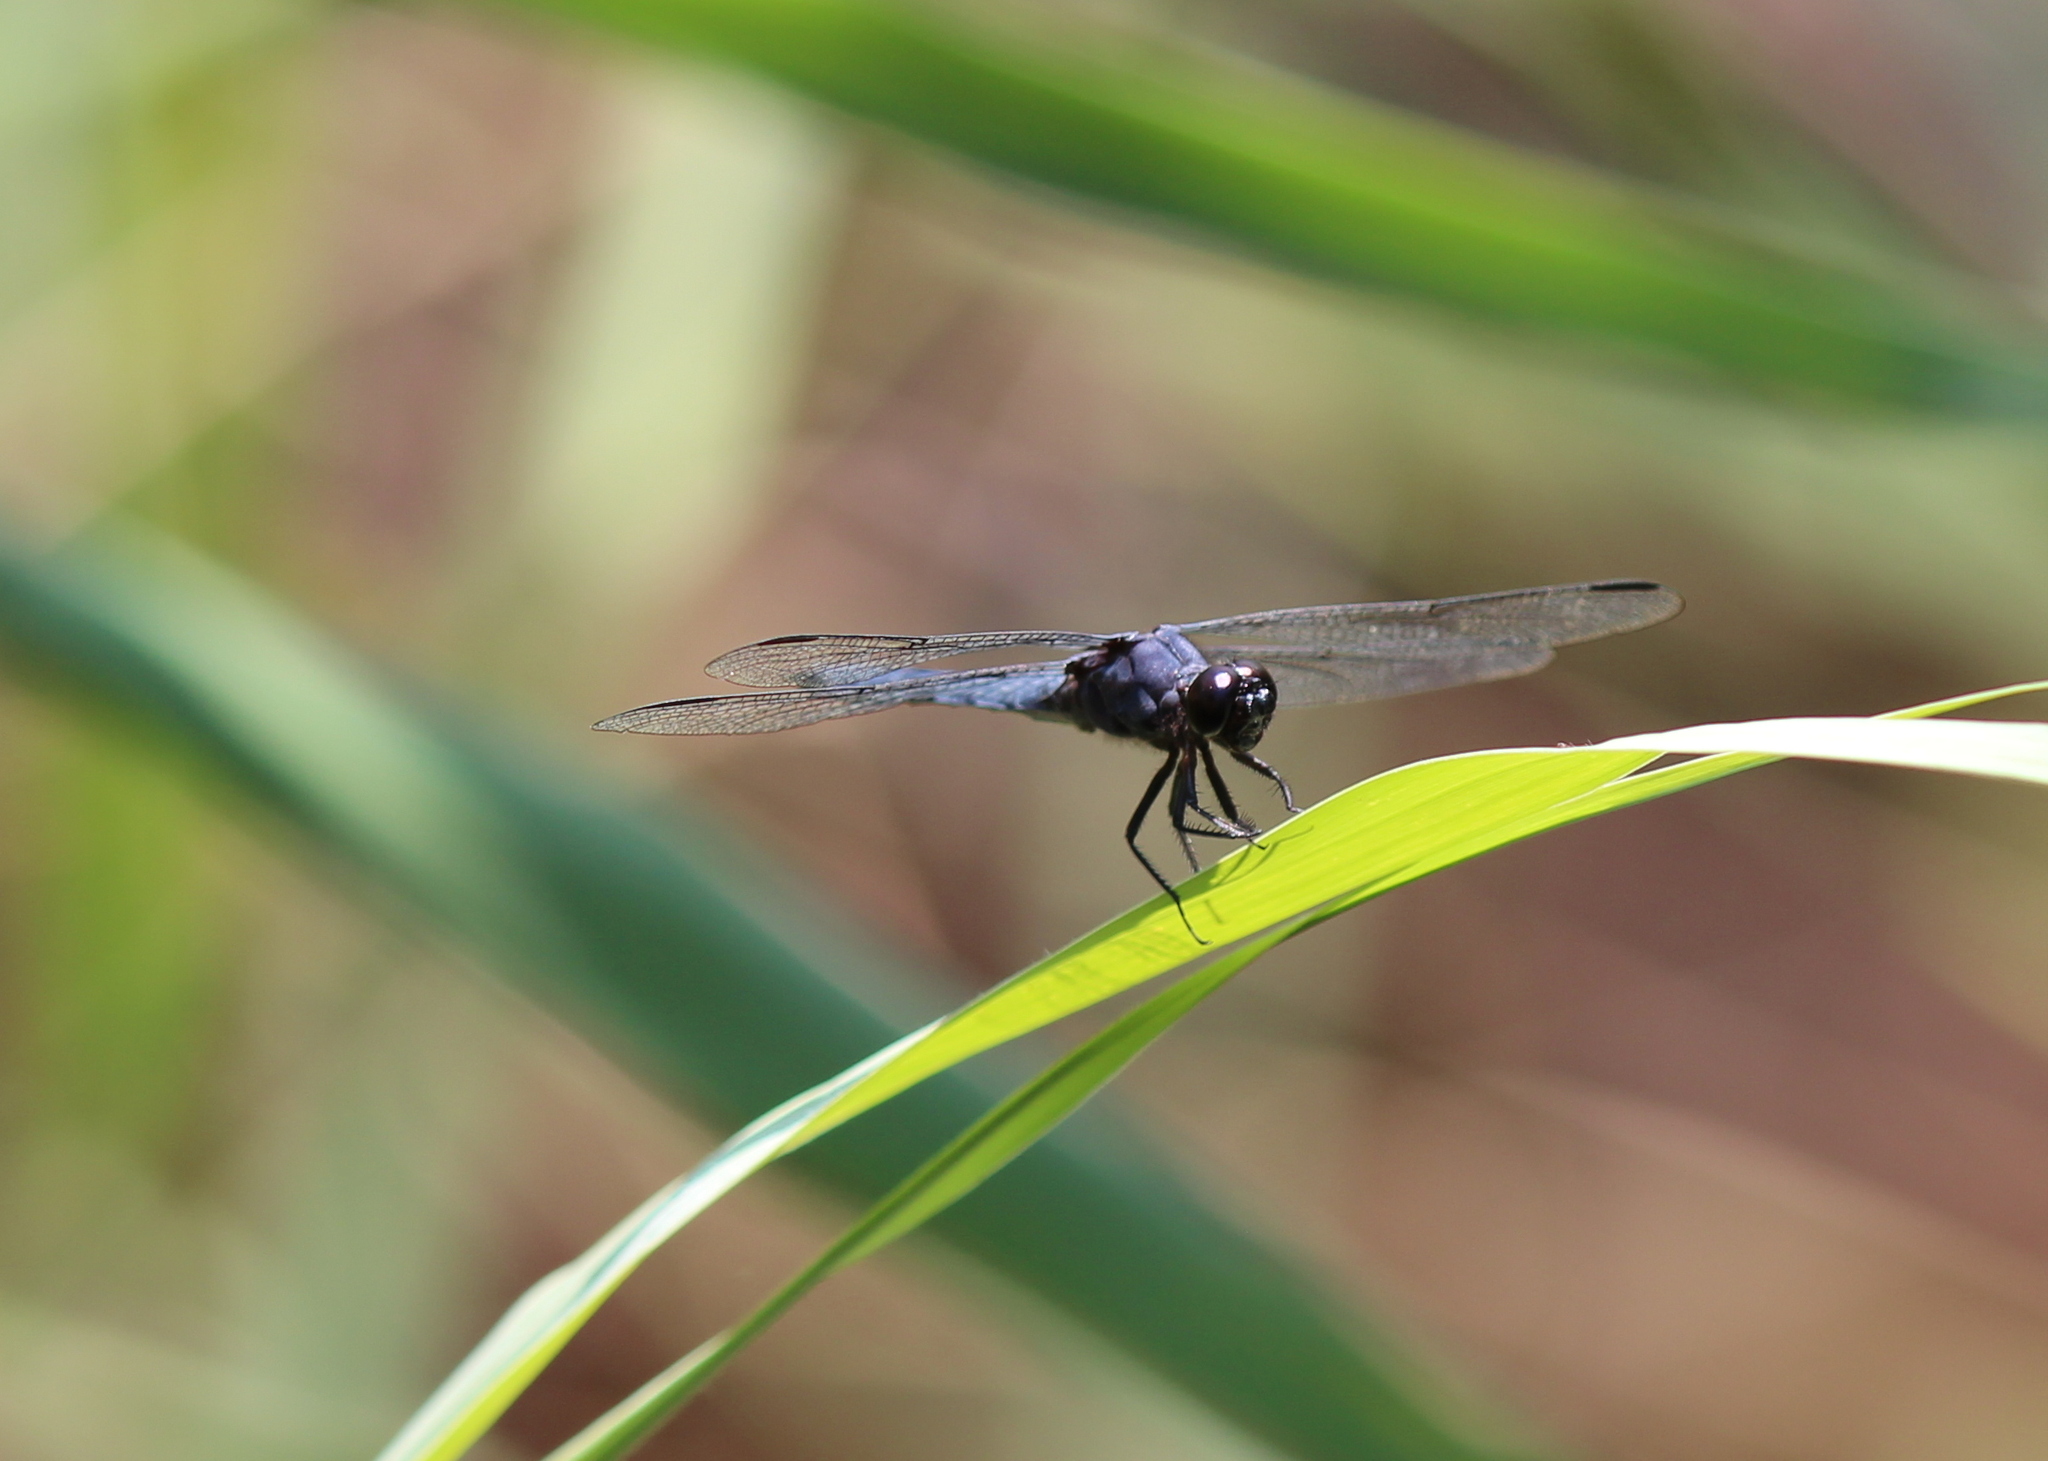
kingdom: Animalia
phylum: Arthropoda
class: Insecta
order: Odonata
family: Libellulidae
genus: Libellula
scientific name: Libellula incesta
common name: Slaty skimmer
